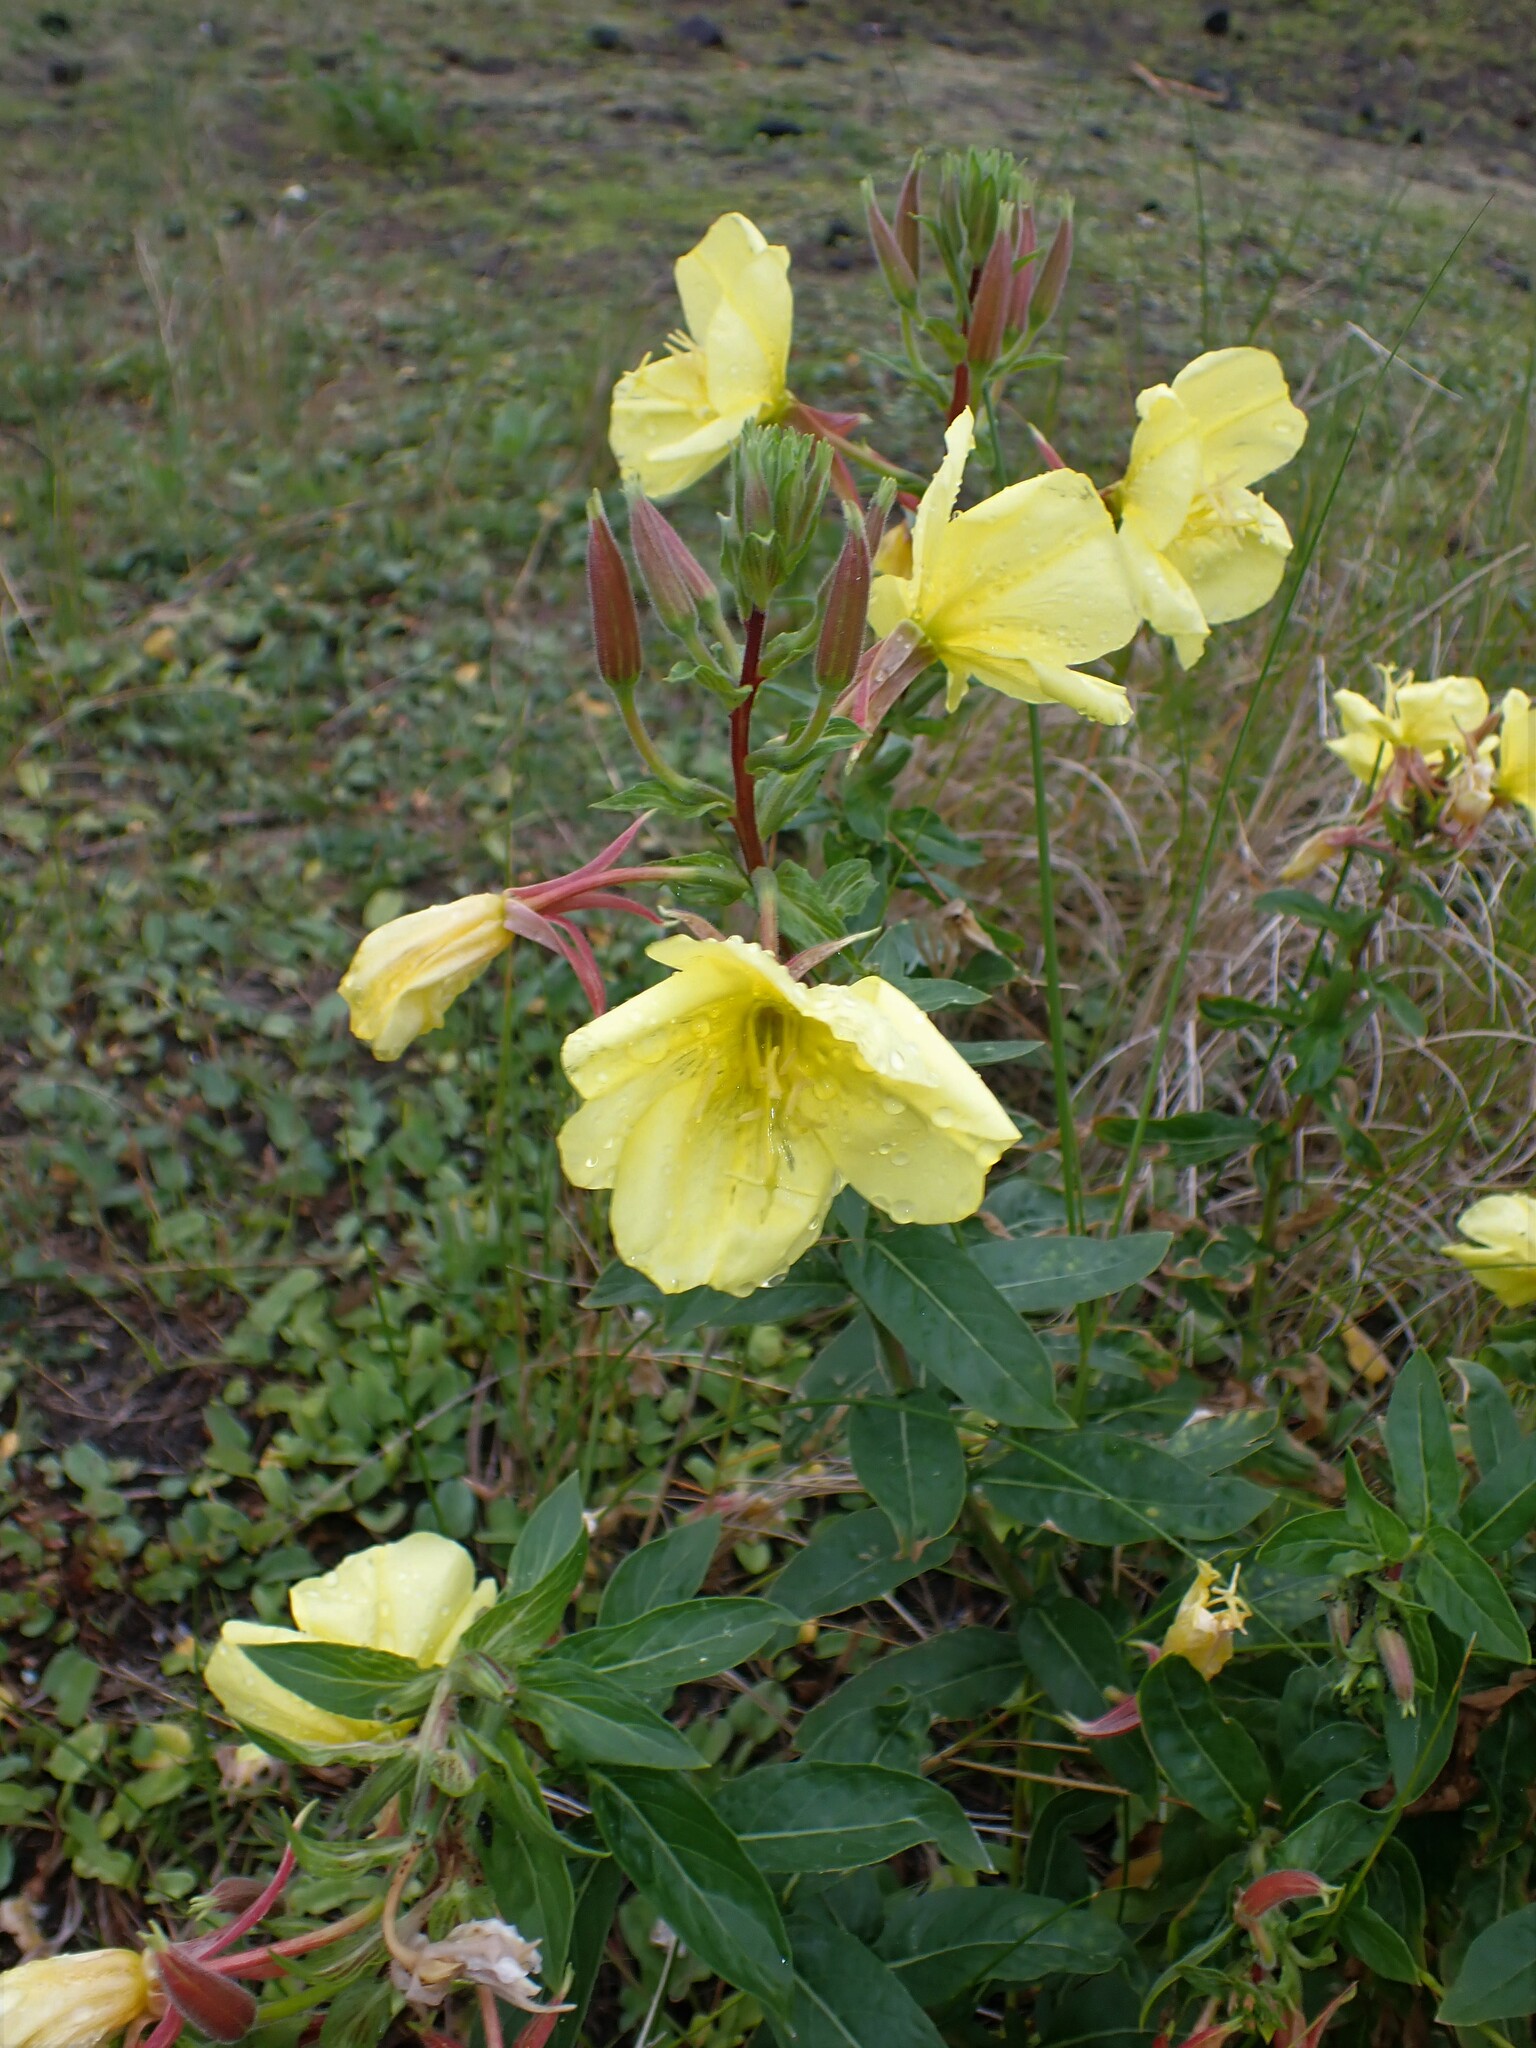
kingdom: Plantae
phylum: Tracheophyta
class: Magnoliopsida
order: Myrtales
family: Onagraceae
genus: Oenothera
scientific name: Oenothera glazioviana
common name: Large-flowered evening-primrose
